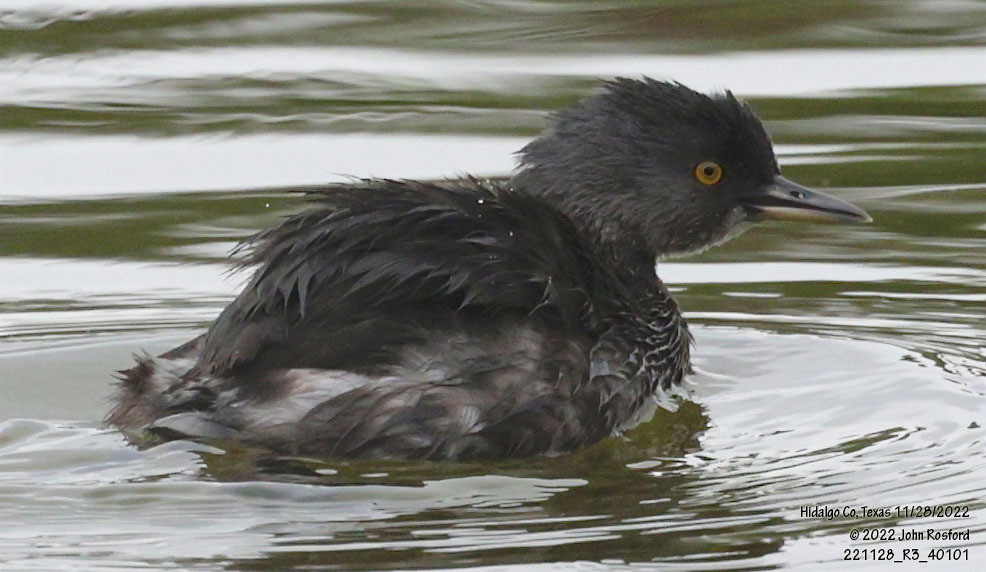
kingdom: Animalia
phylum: Chordata
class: Aves
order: Podicipediformes
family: Podicipedidae
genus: Tachybaptus
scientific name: Tachybaptus dominicus
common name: Least grebe
